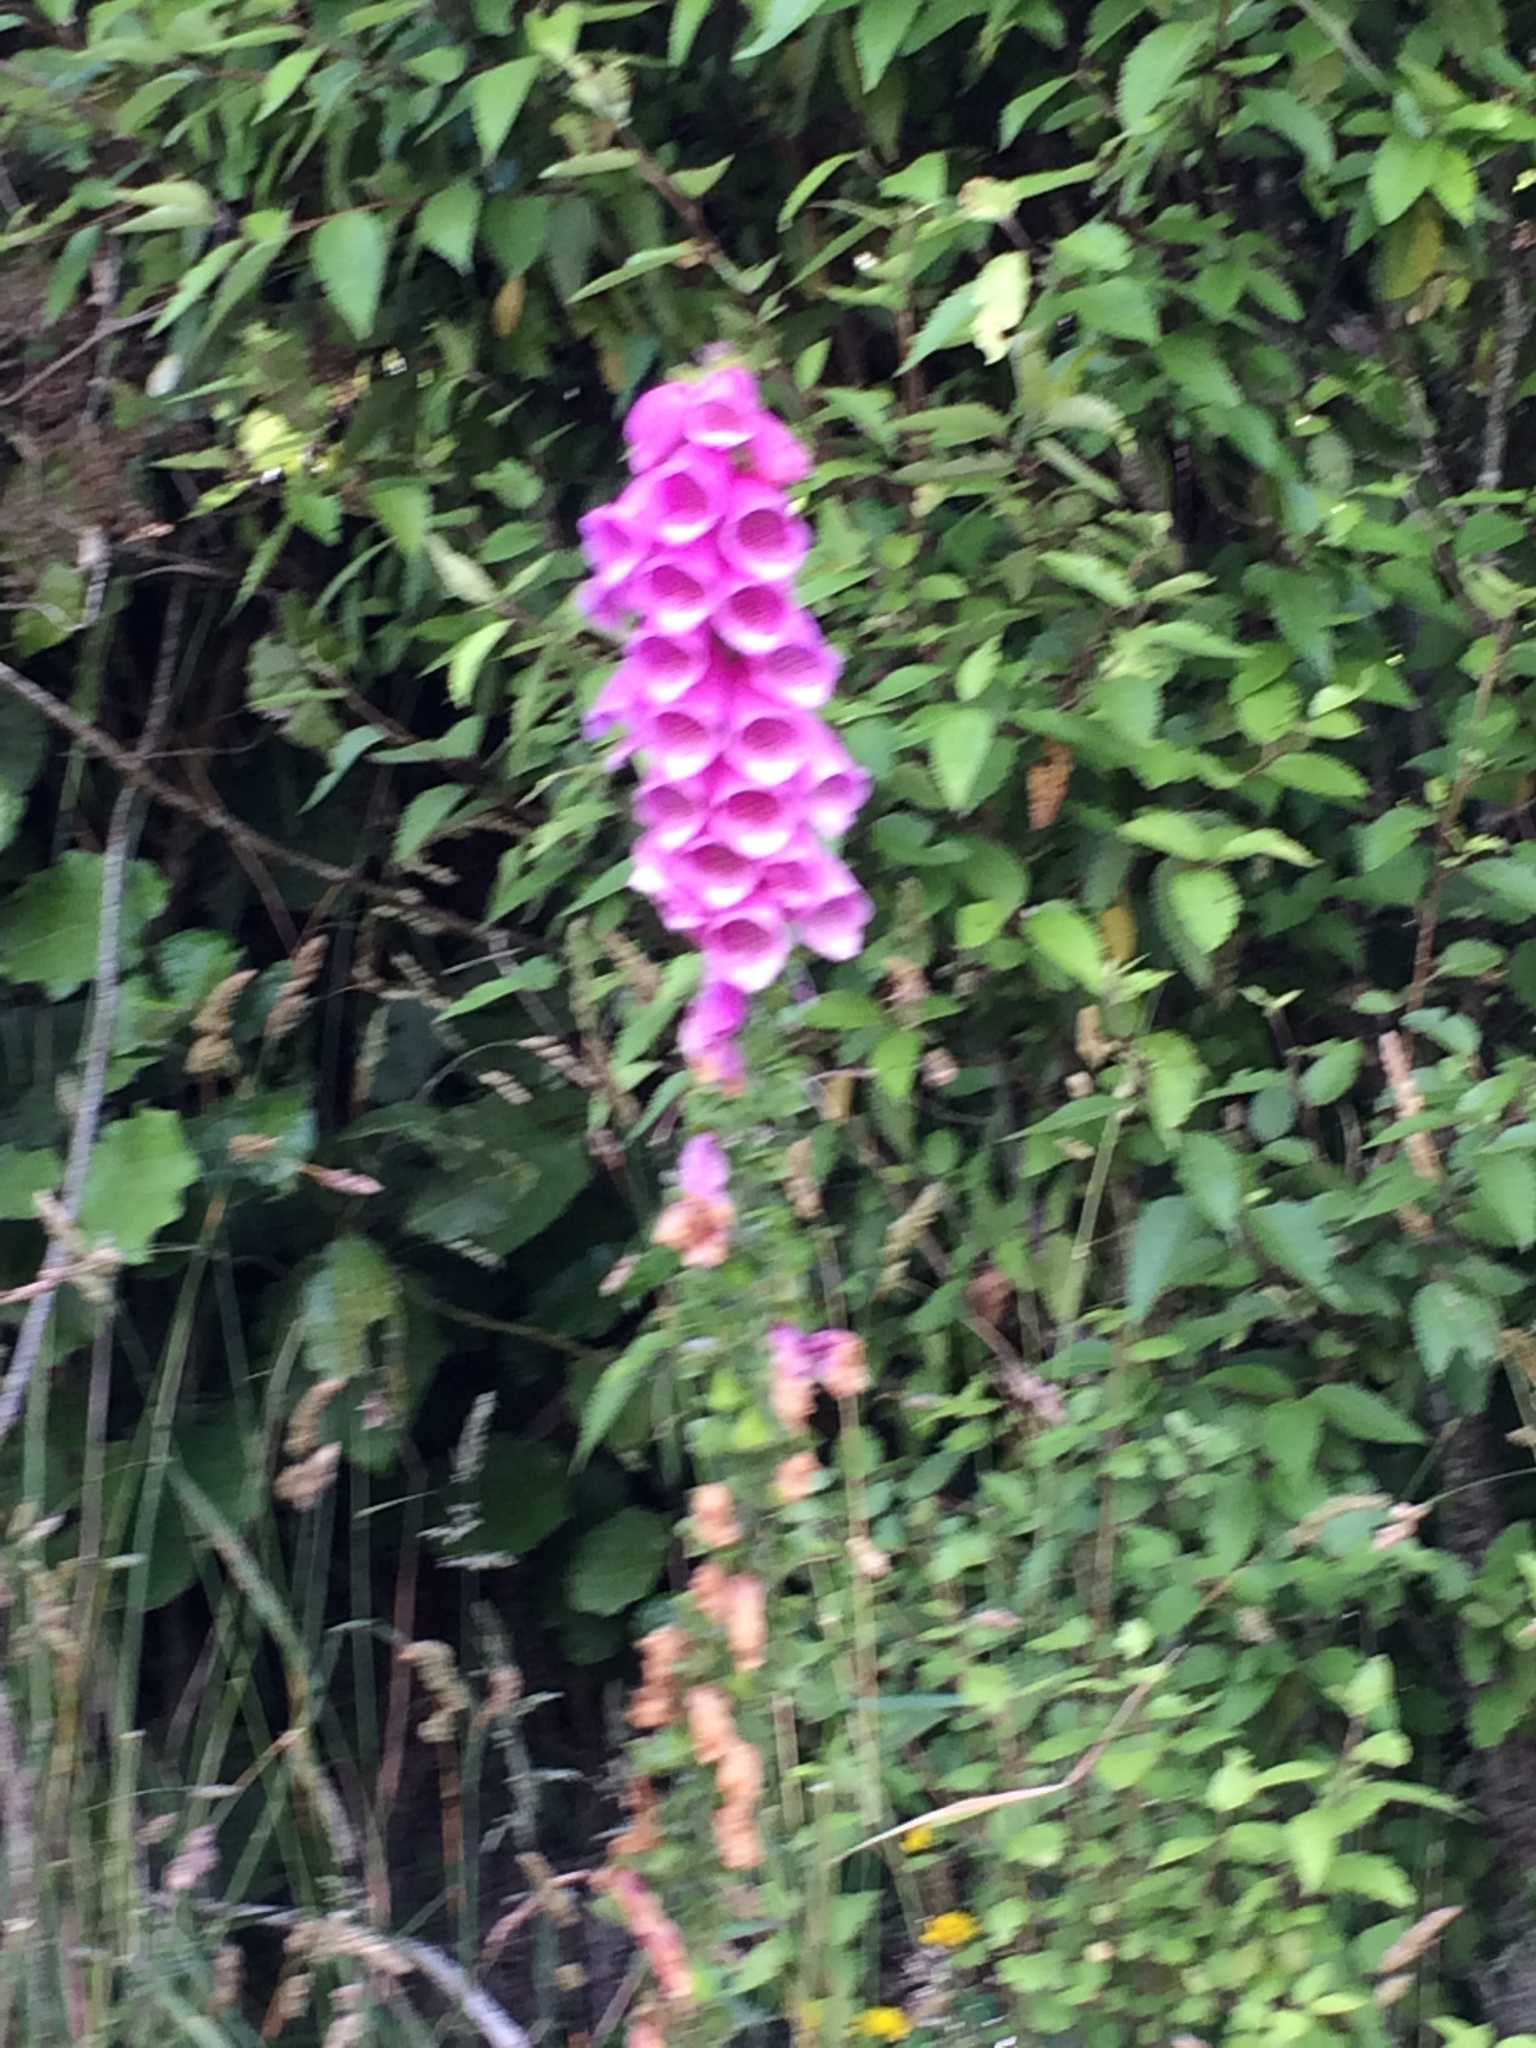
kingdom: Plantae
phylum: Tracheophyta
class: Magnoliopsida
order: Lamiales
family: Plantaginaceae
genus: Digitalis
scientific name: Digitalis purpurea
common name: Foxglove
